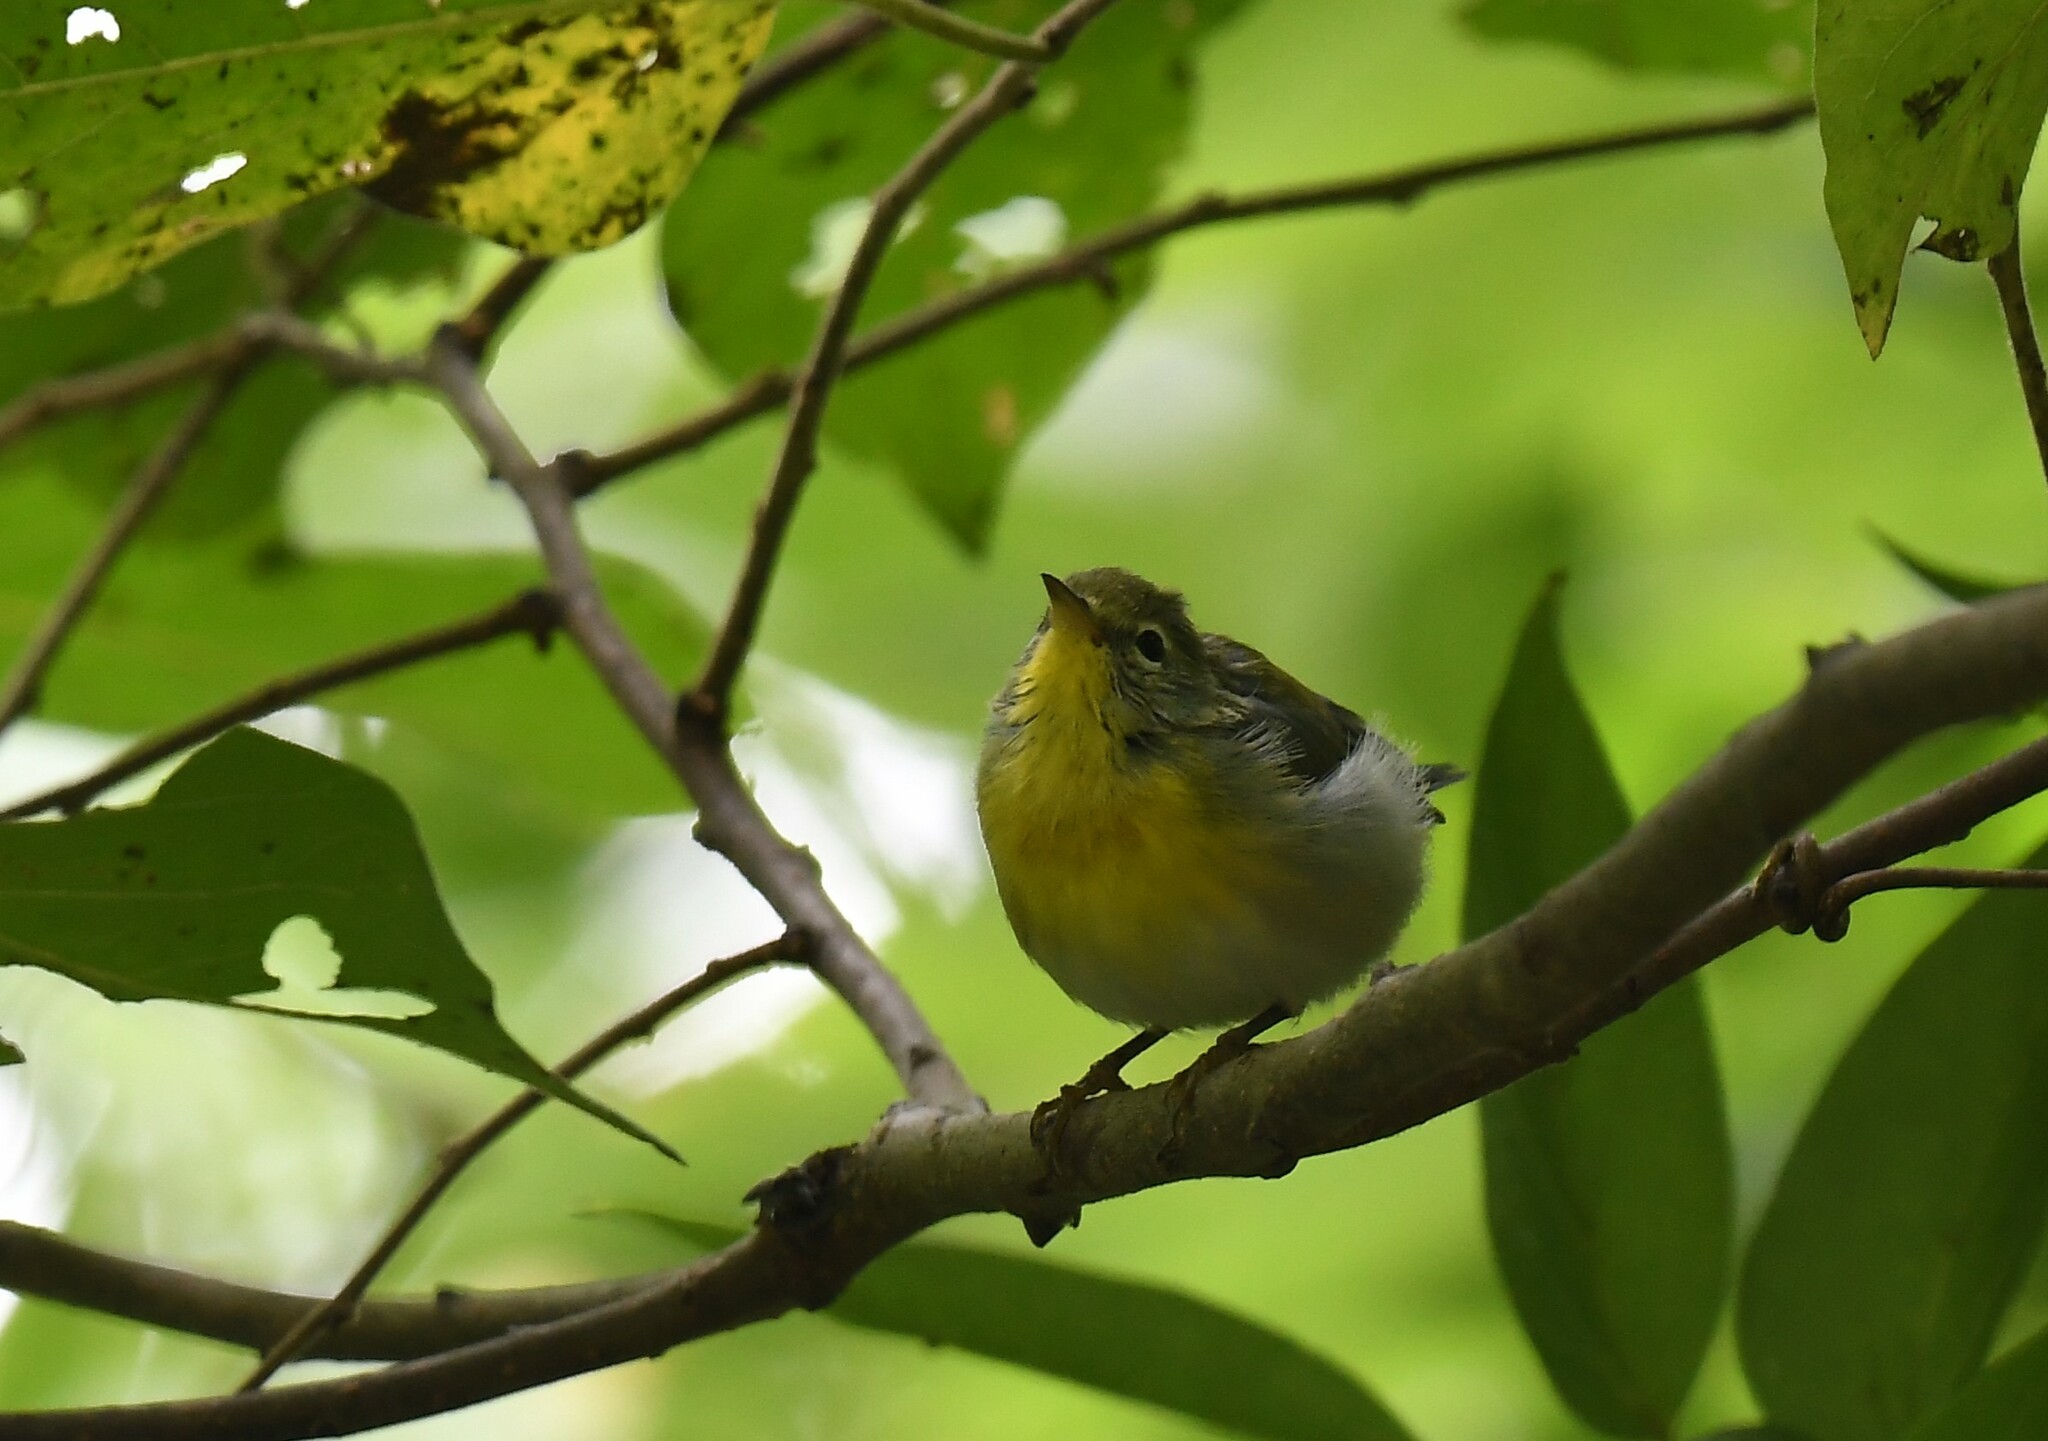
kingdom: Animalia
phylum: Chordata
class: Aves
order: Passeriformes
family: Parulidae
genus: Setophaga
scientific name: Setophaga americana
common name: Northern parula
